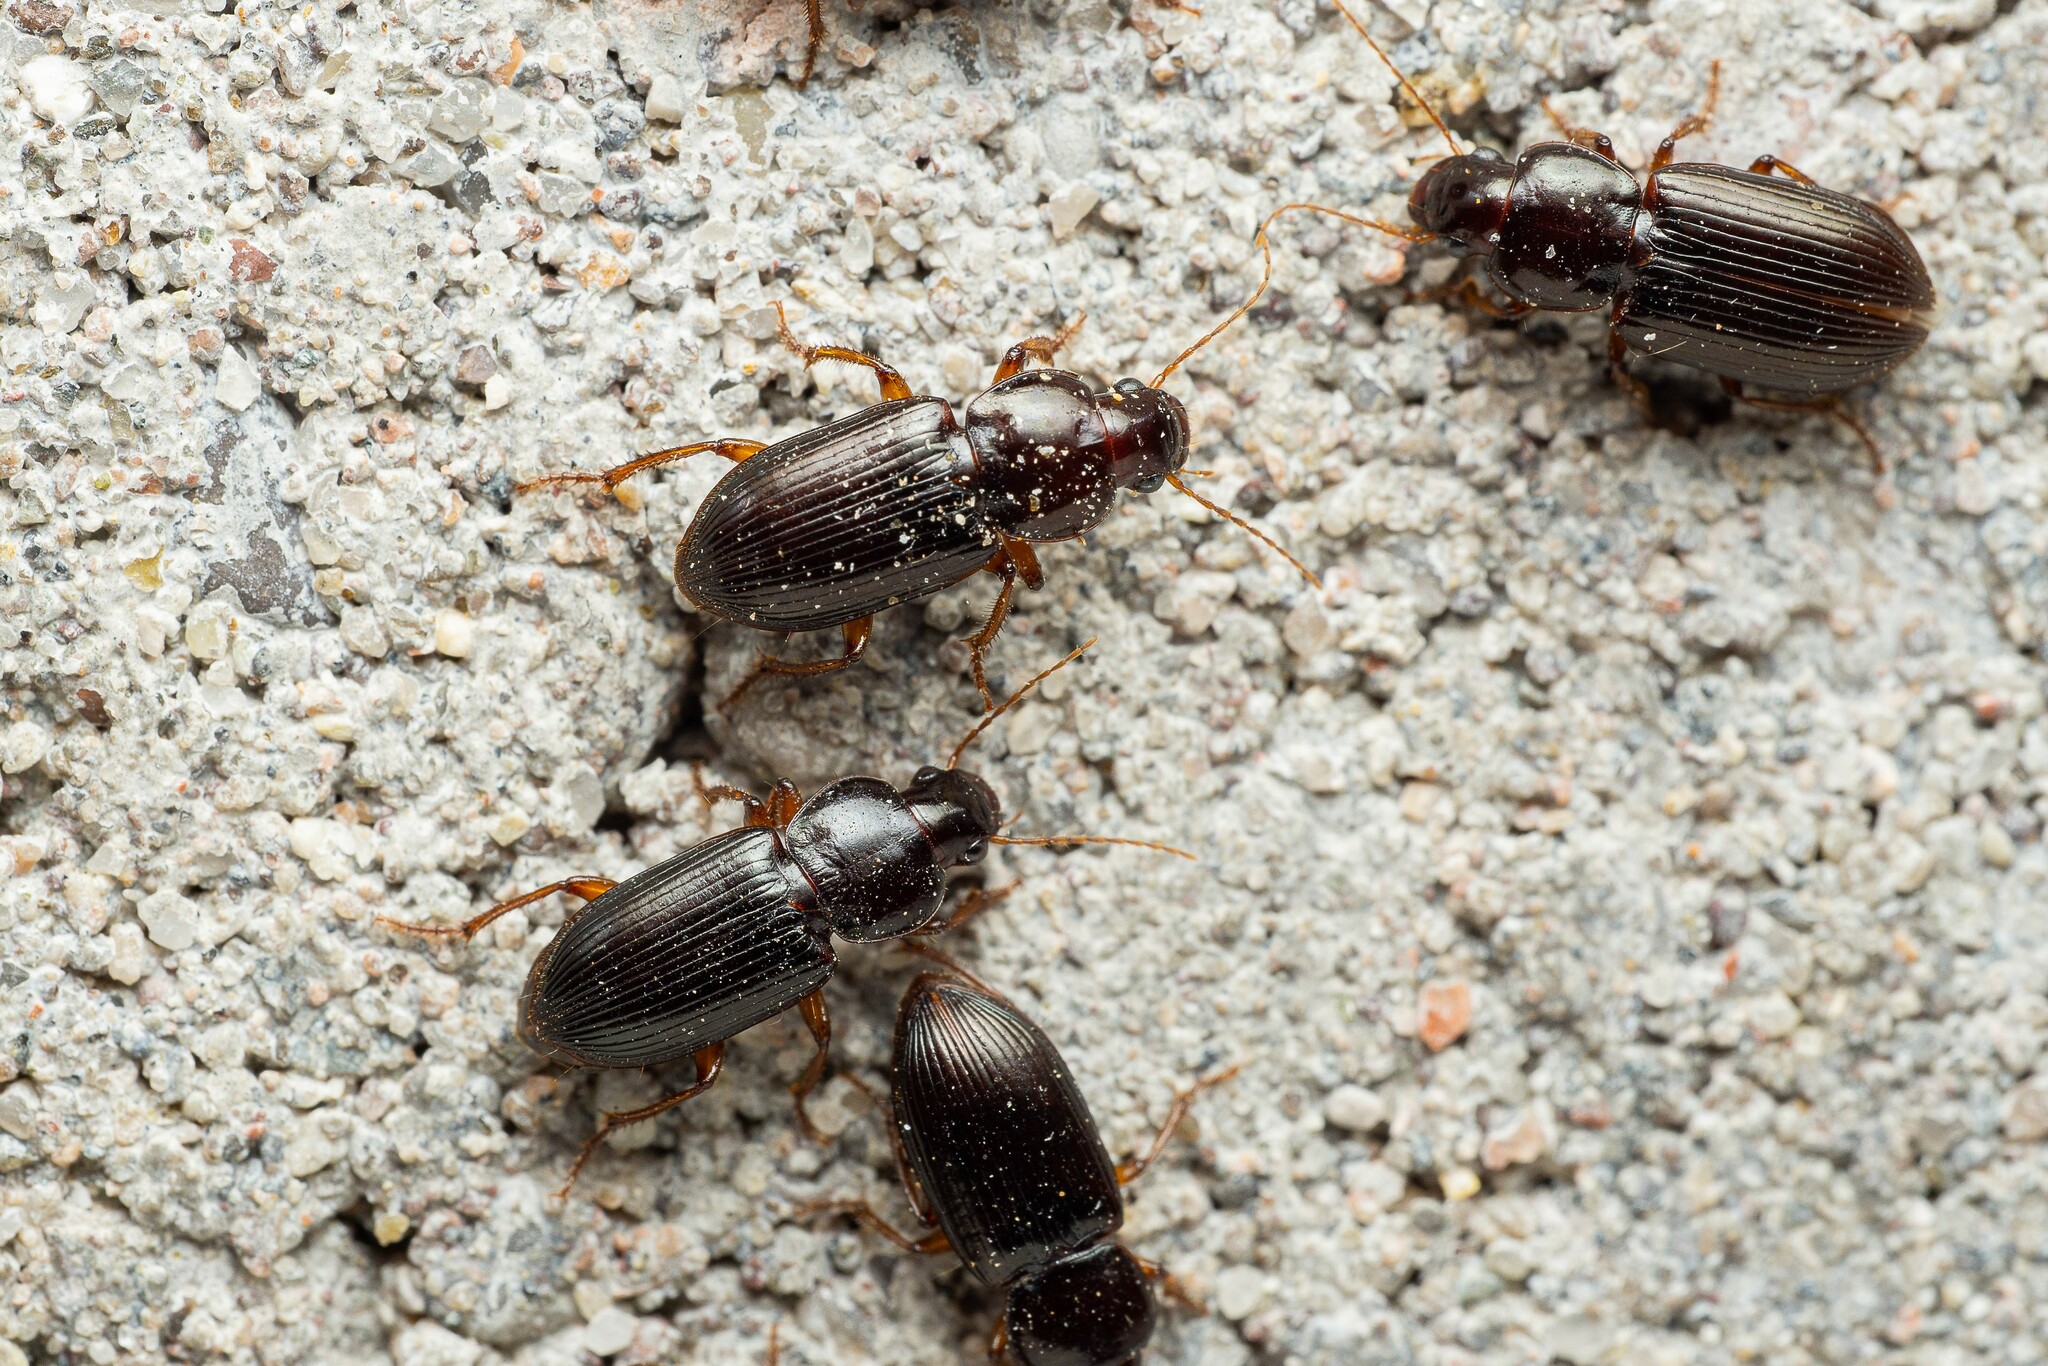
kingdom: Animalia
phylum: Arthropoda
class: Insecta
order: Coleoptera
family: Carabidae
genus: Discoderus
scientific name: Discoderus obsidianus
